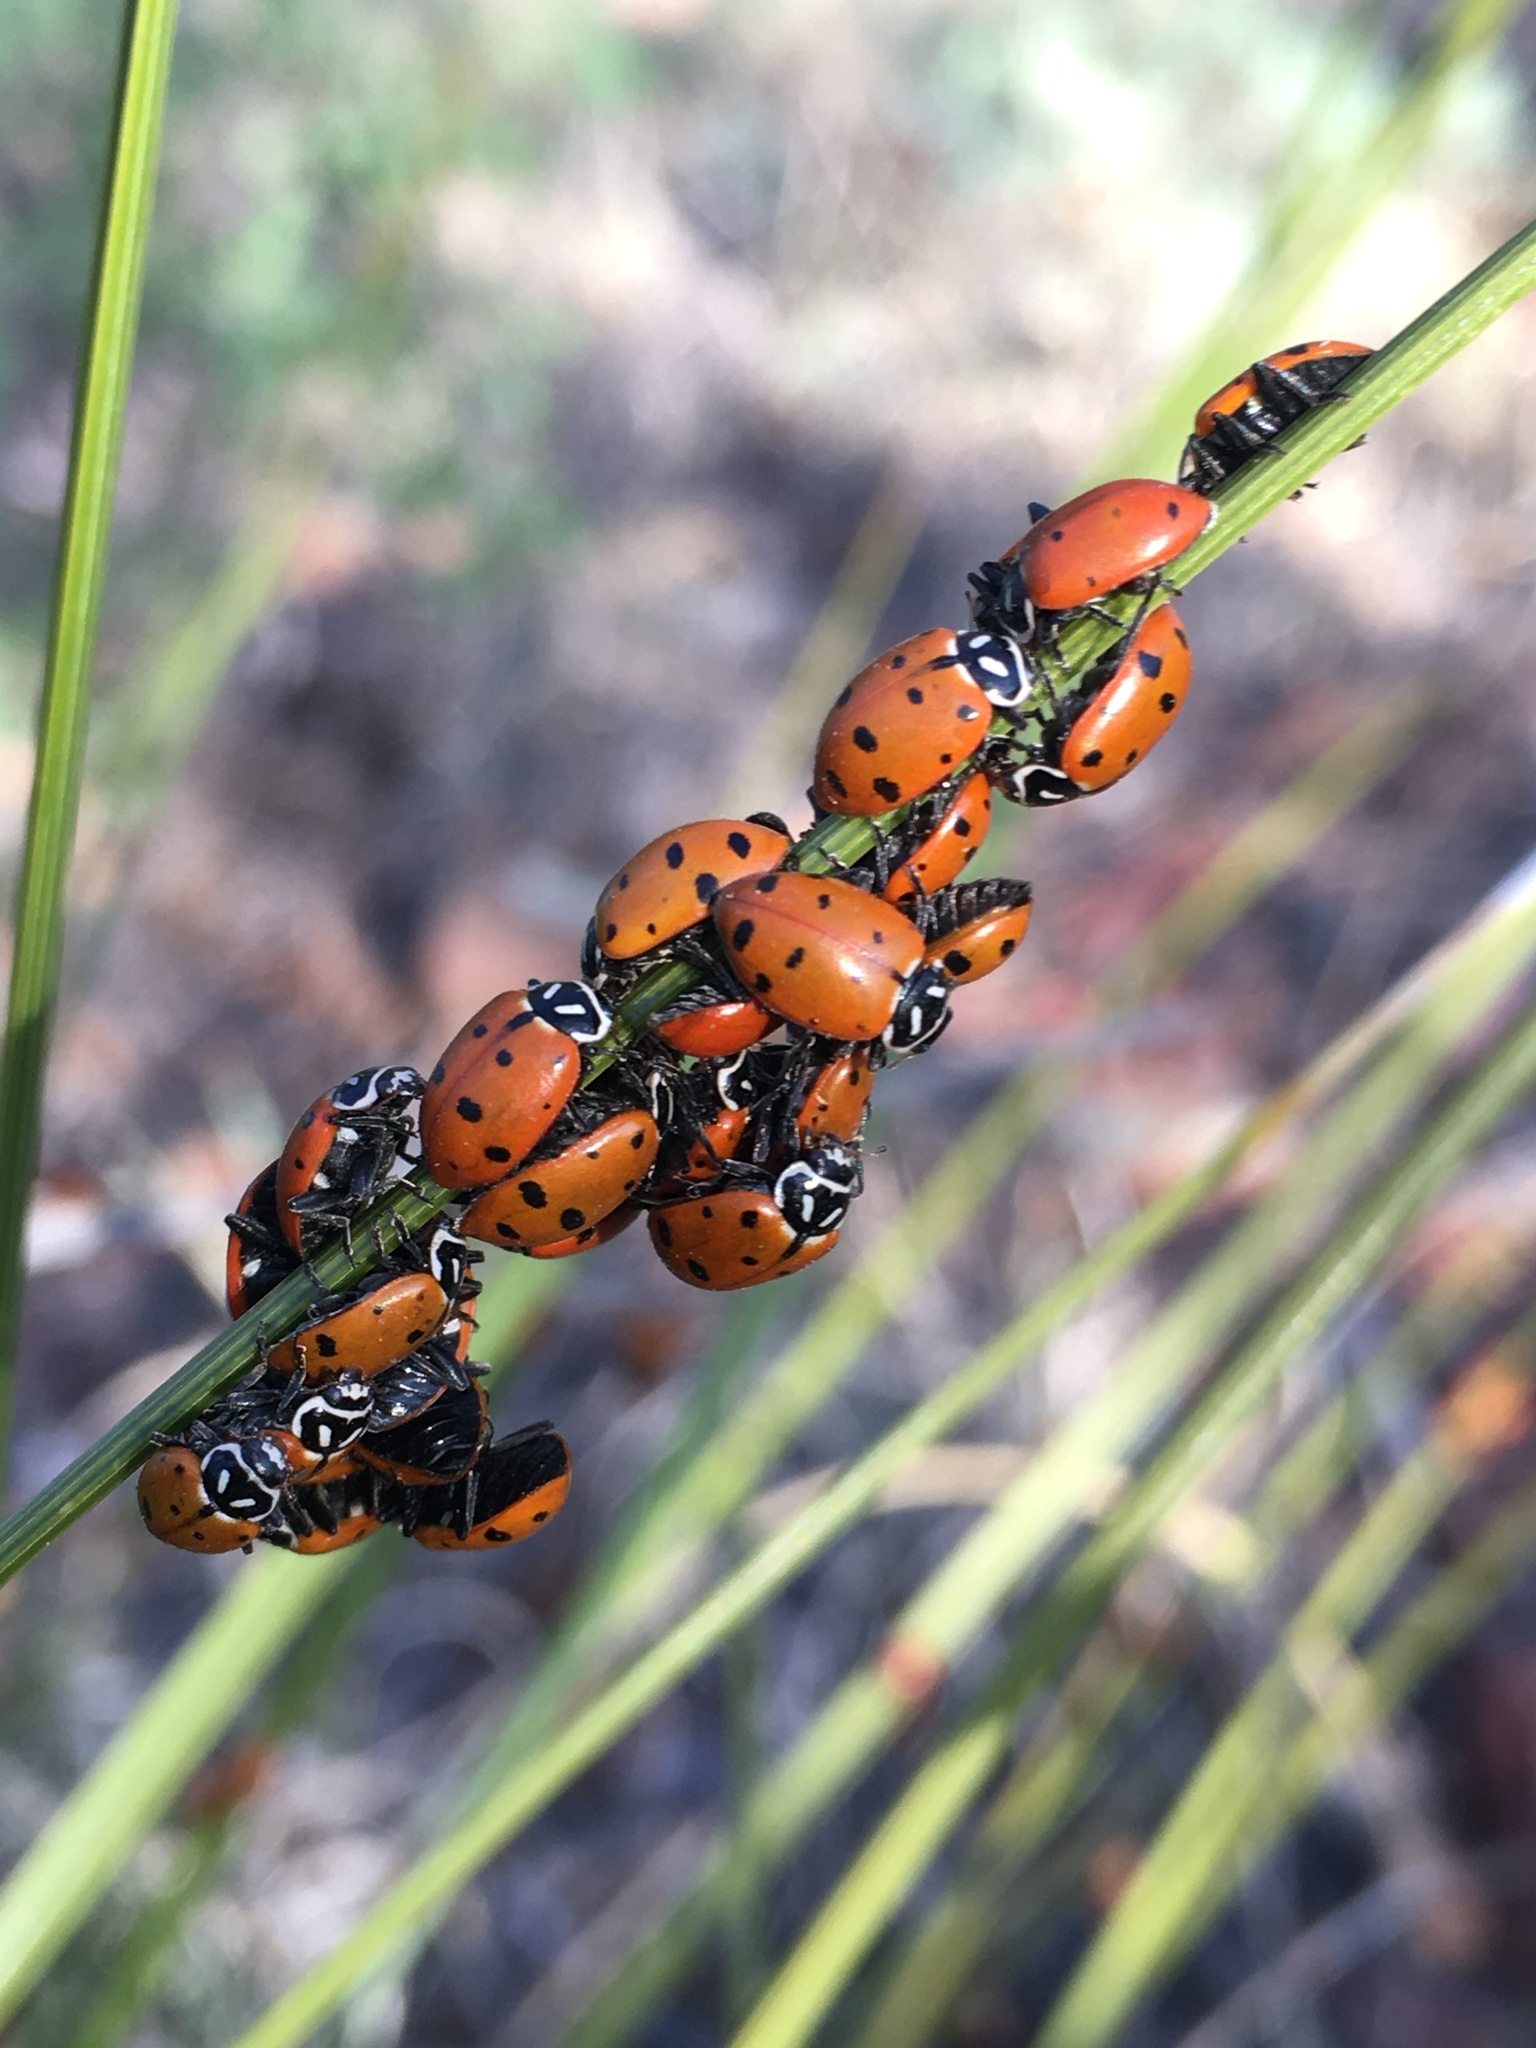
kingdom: Animalia
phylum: Arthropoda
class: Insecta
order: Coleoptera
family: Coccinellidae
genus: Hippodamia
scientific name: Hippodamia convergens
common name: Convergent lady beetle
